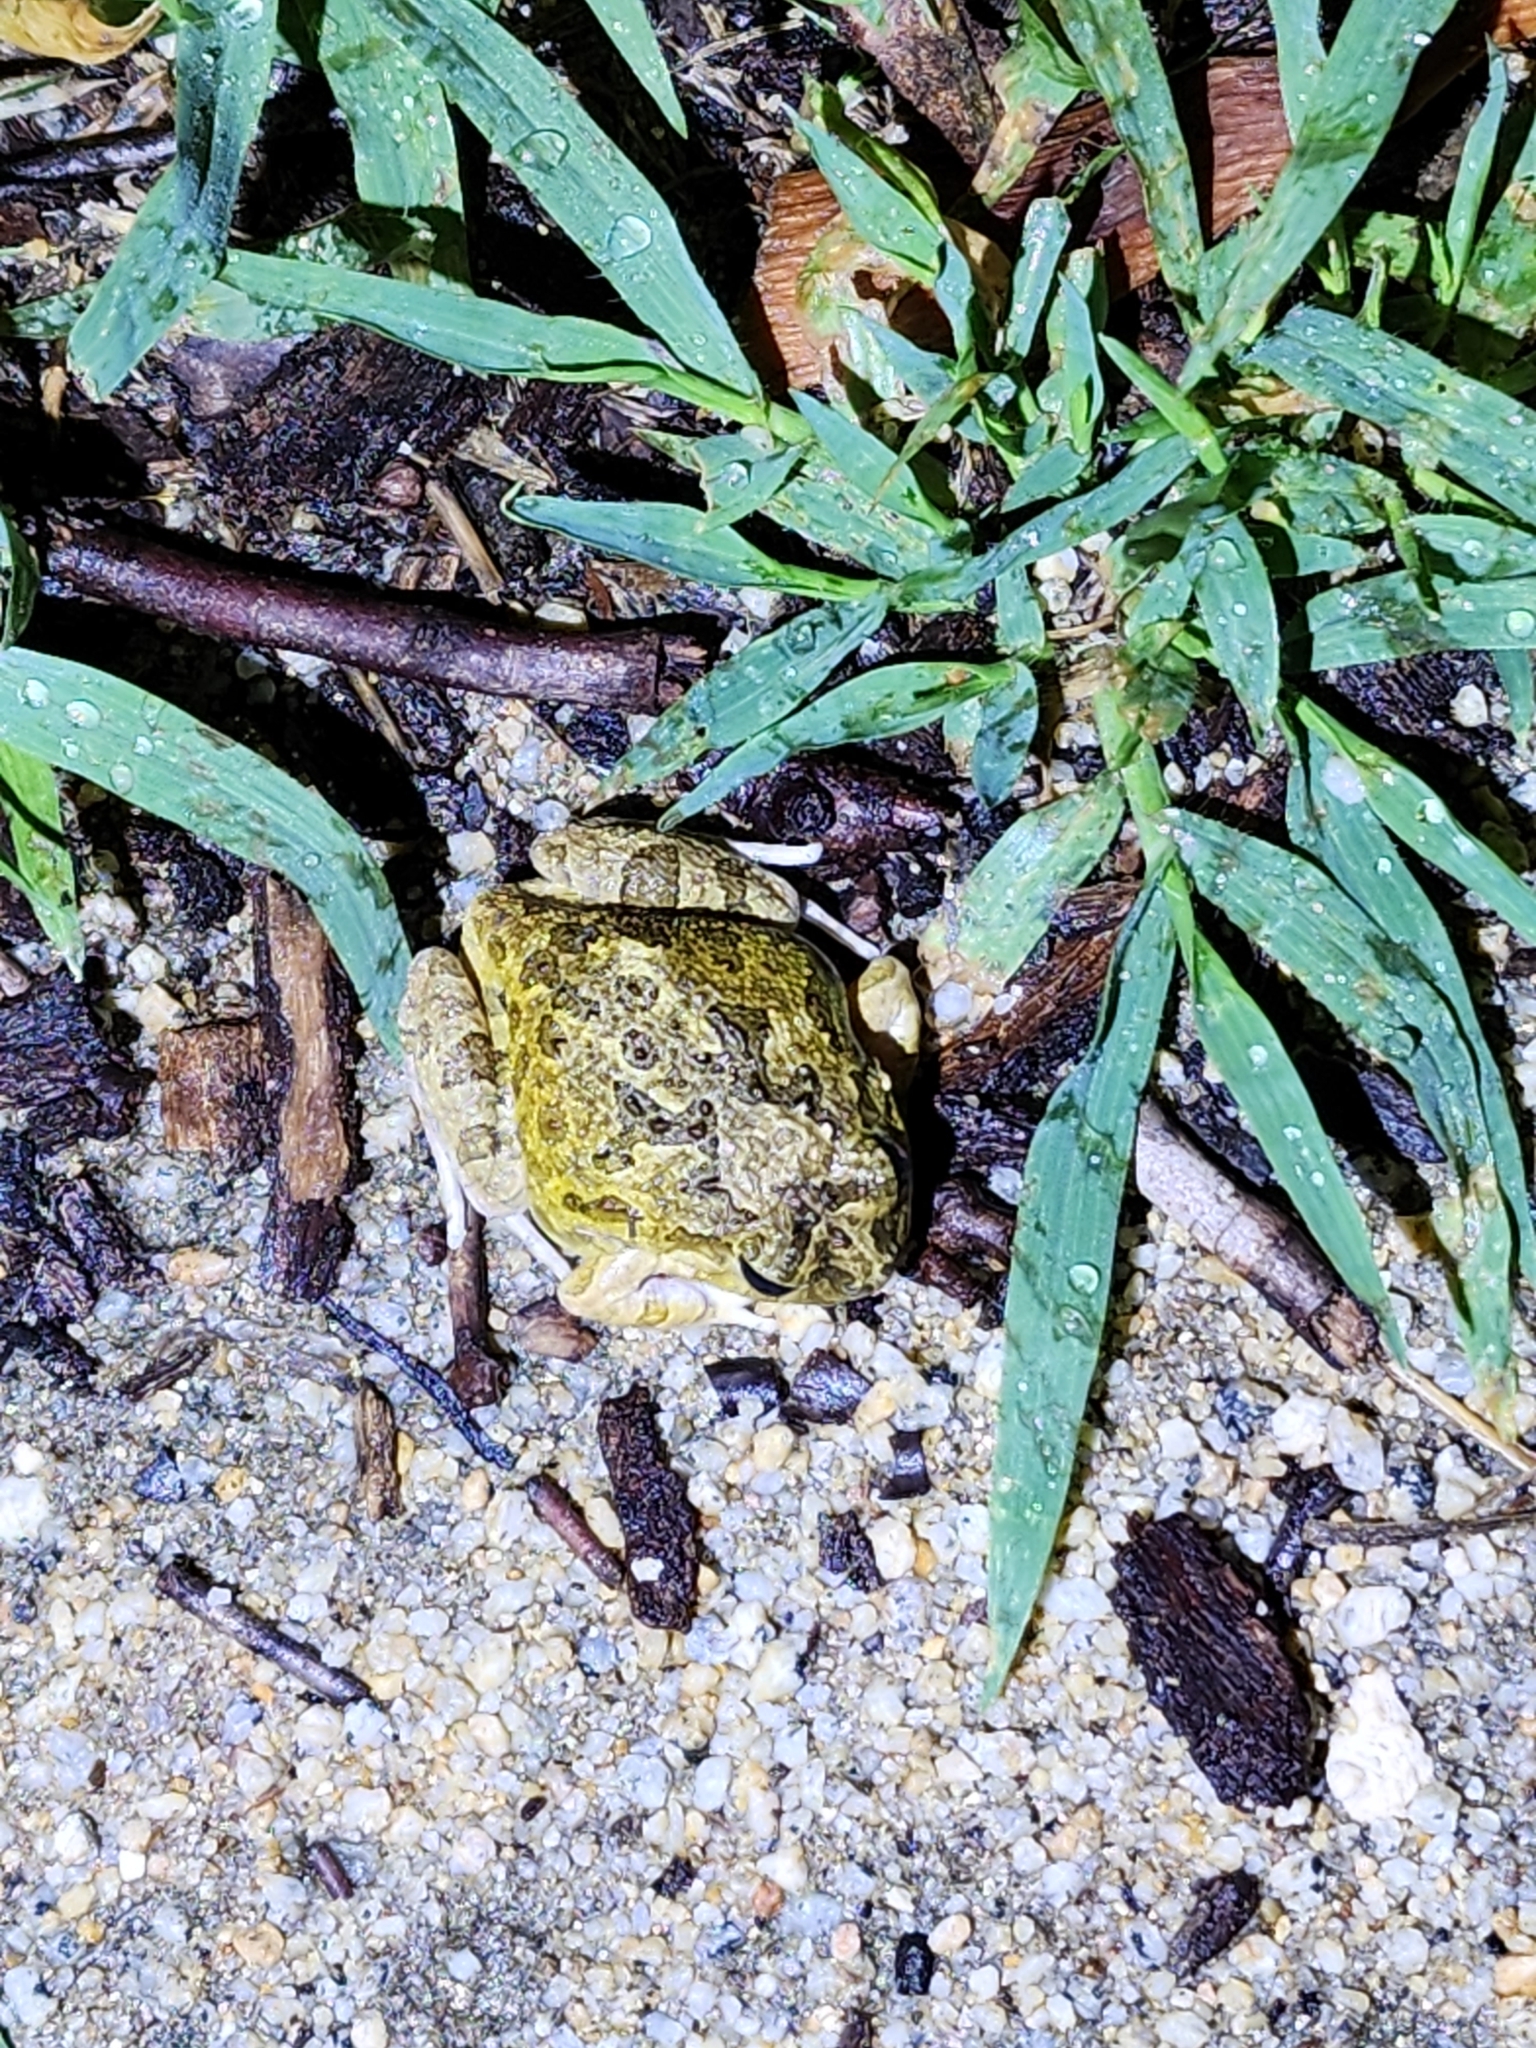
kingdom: Animalia
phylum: Chordata
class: Amphibia
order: Anura
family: Limnodynastidae
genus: Platyplectrum
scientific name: Platyplectrum ornatum
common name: Ornate burrowing frog
